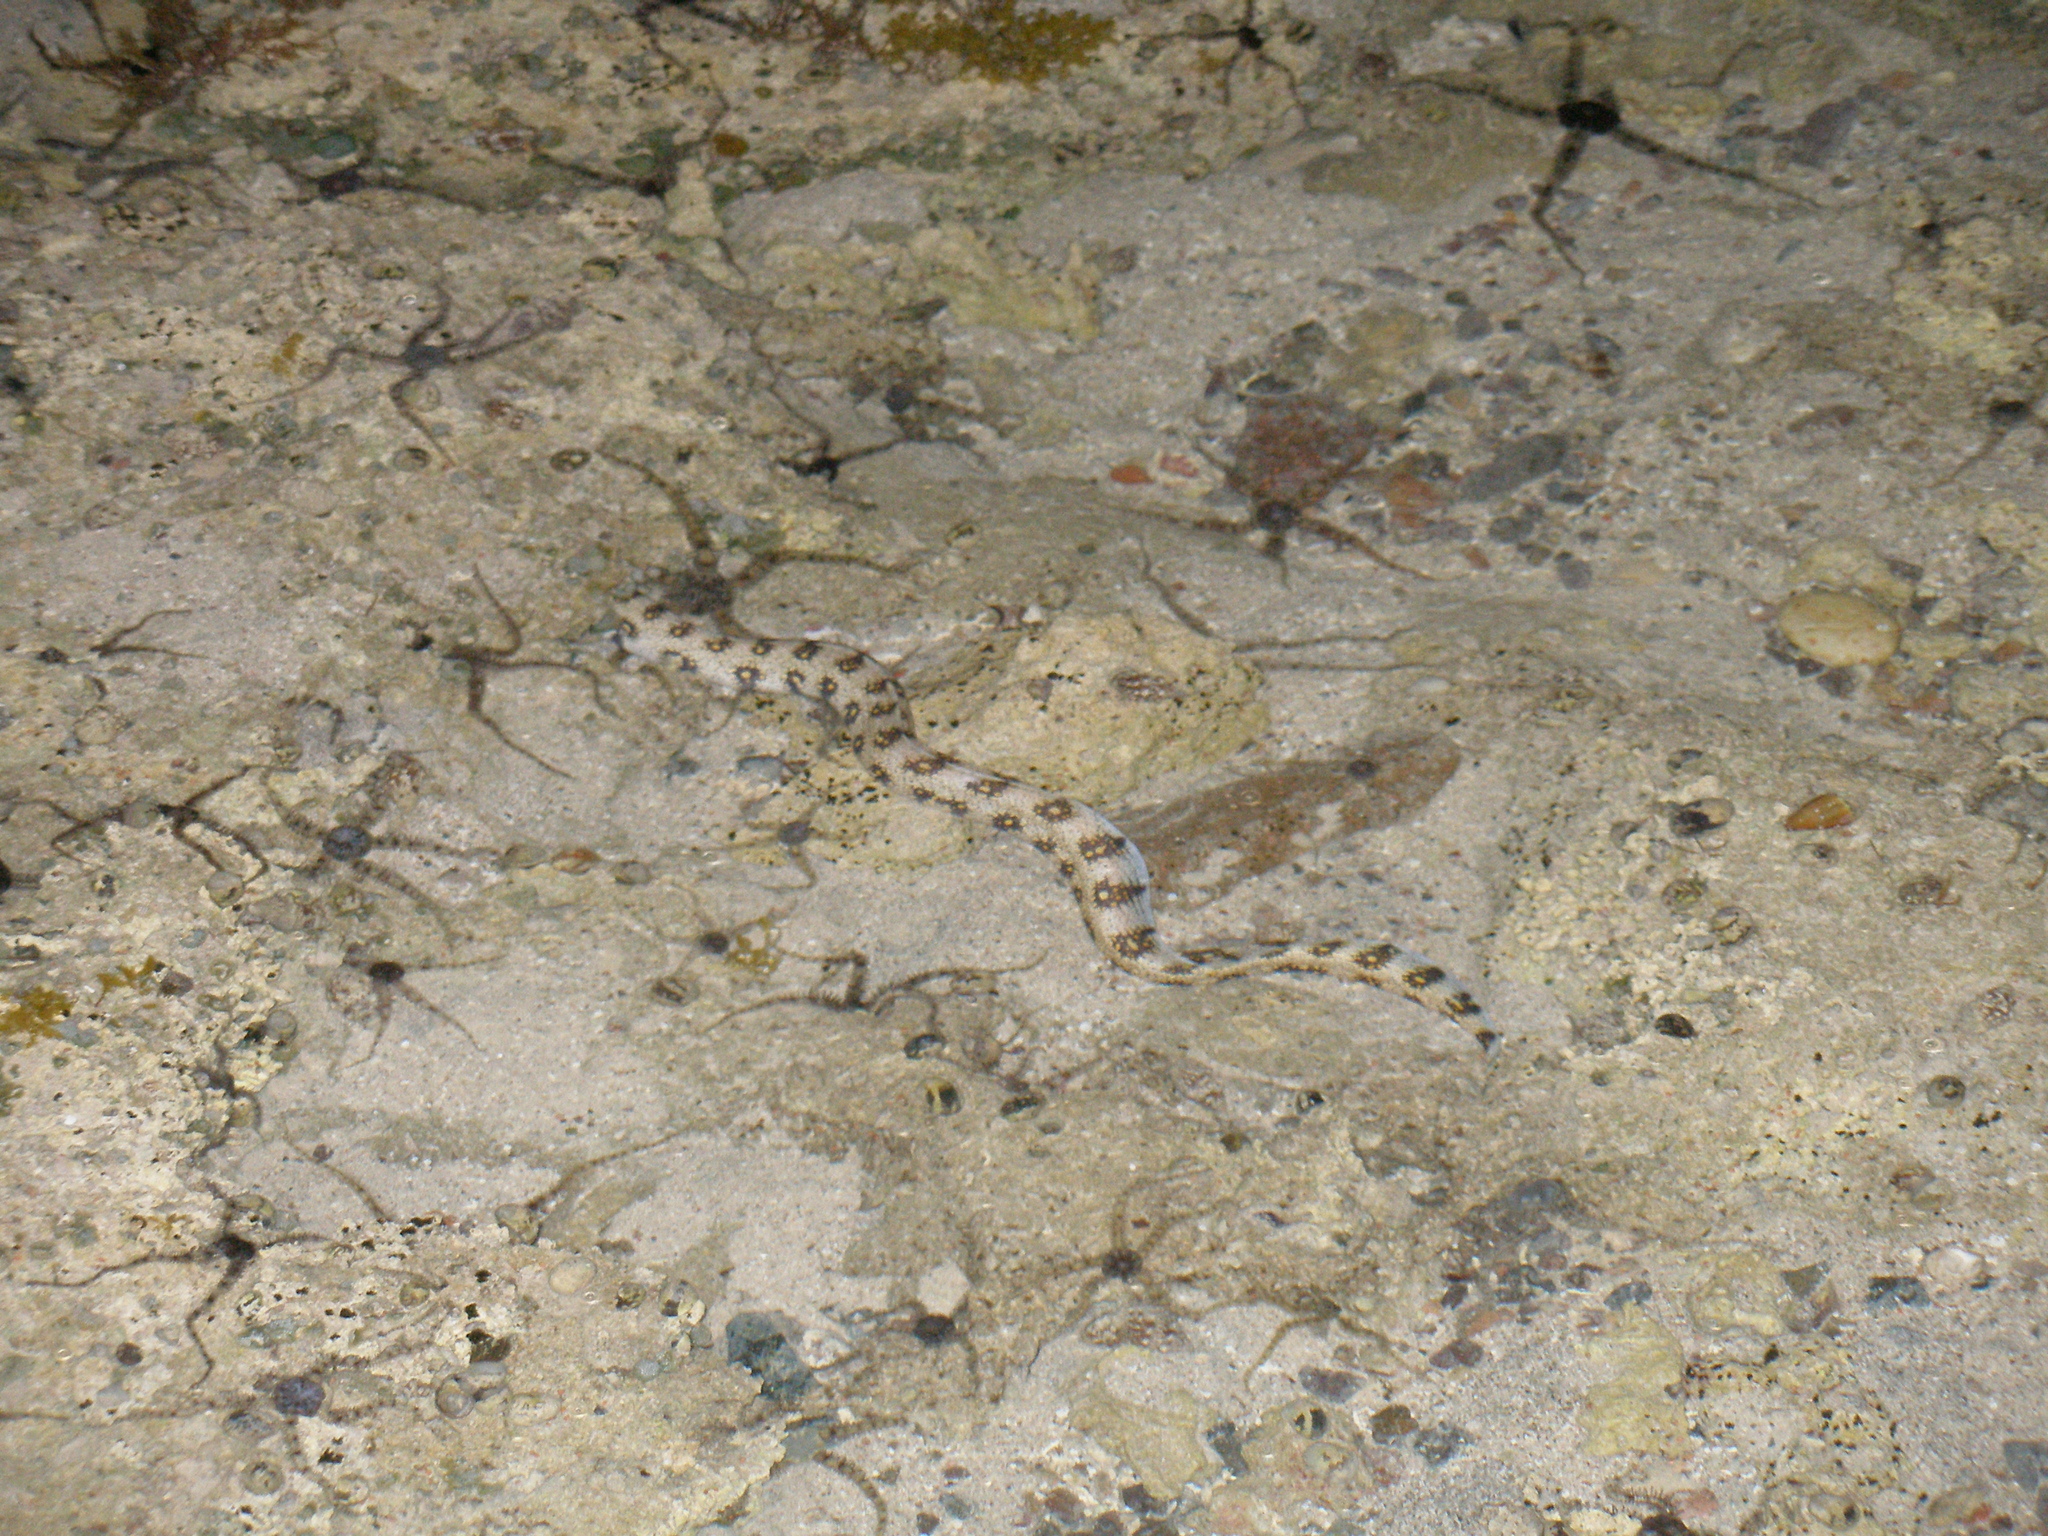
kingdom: Animalia
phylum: Chordata
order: Anguilliformes
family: Muraenidae
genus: Echidna
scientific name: Echidna nebulosa
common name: Snowflake moray
